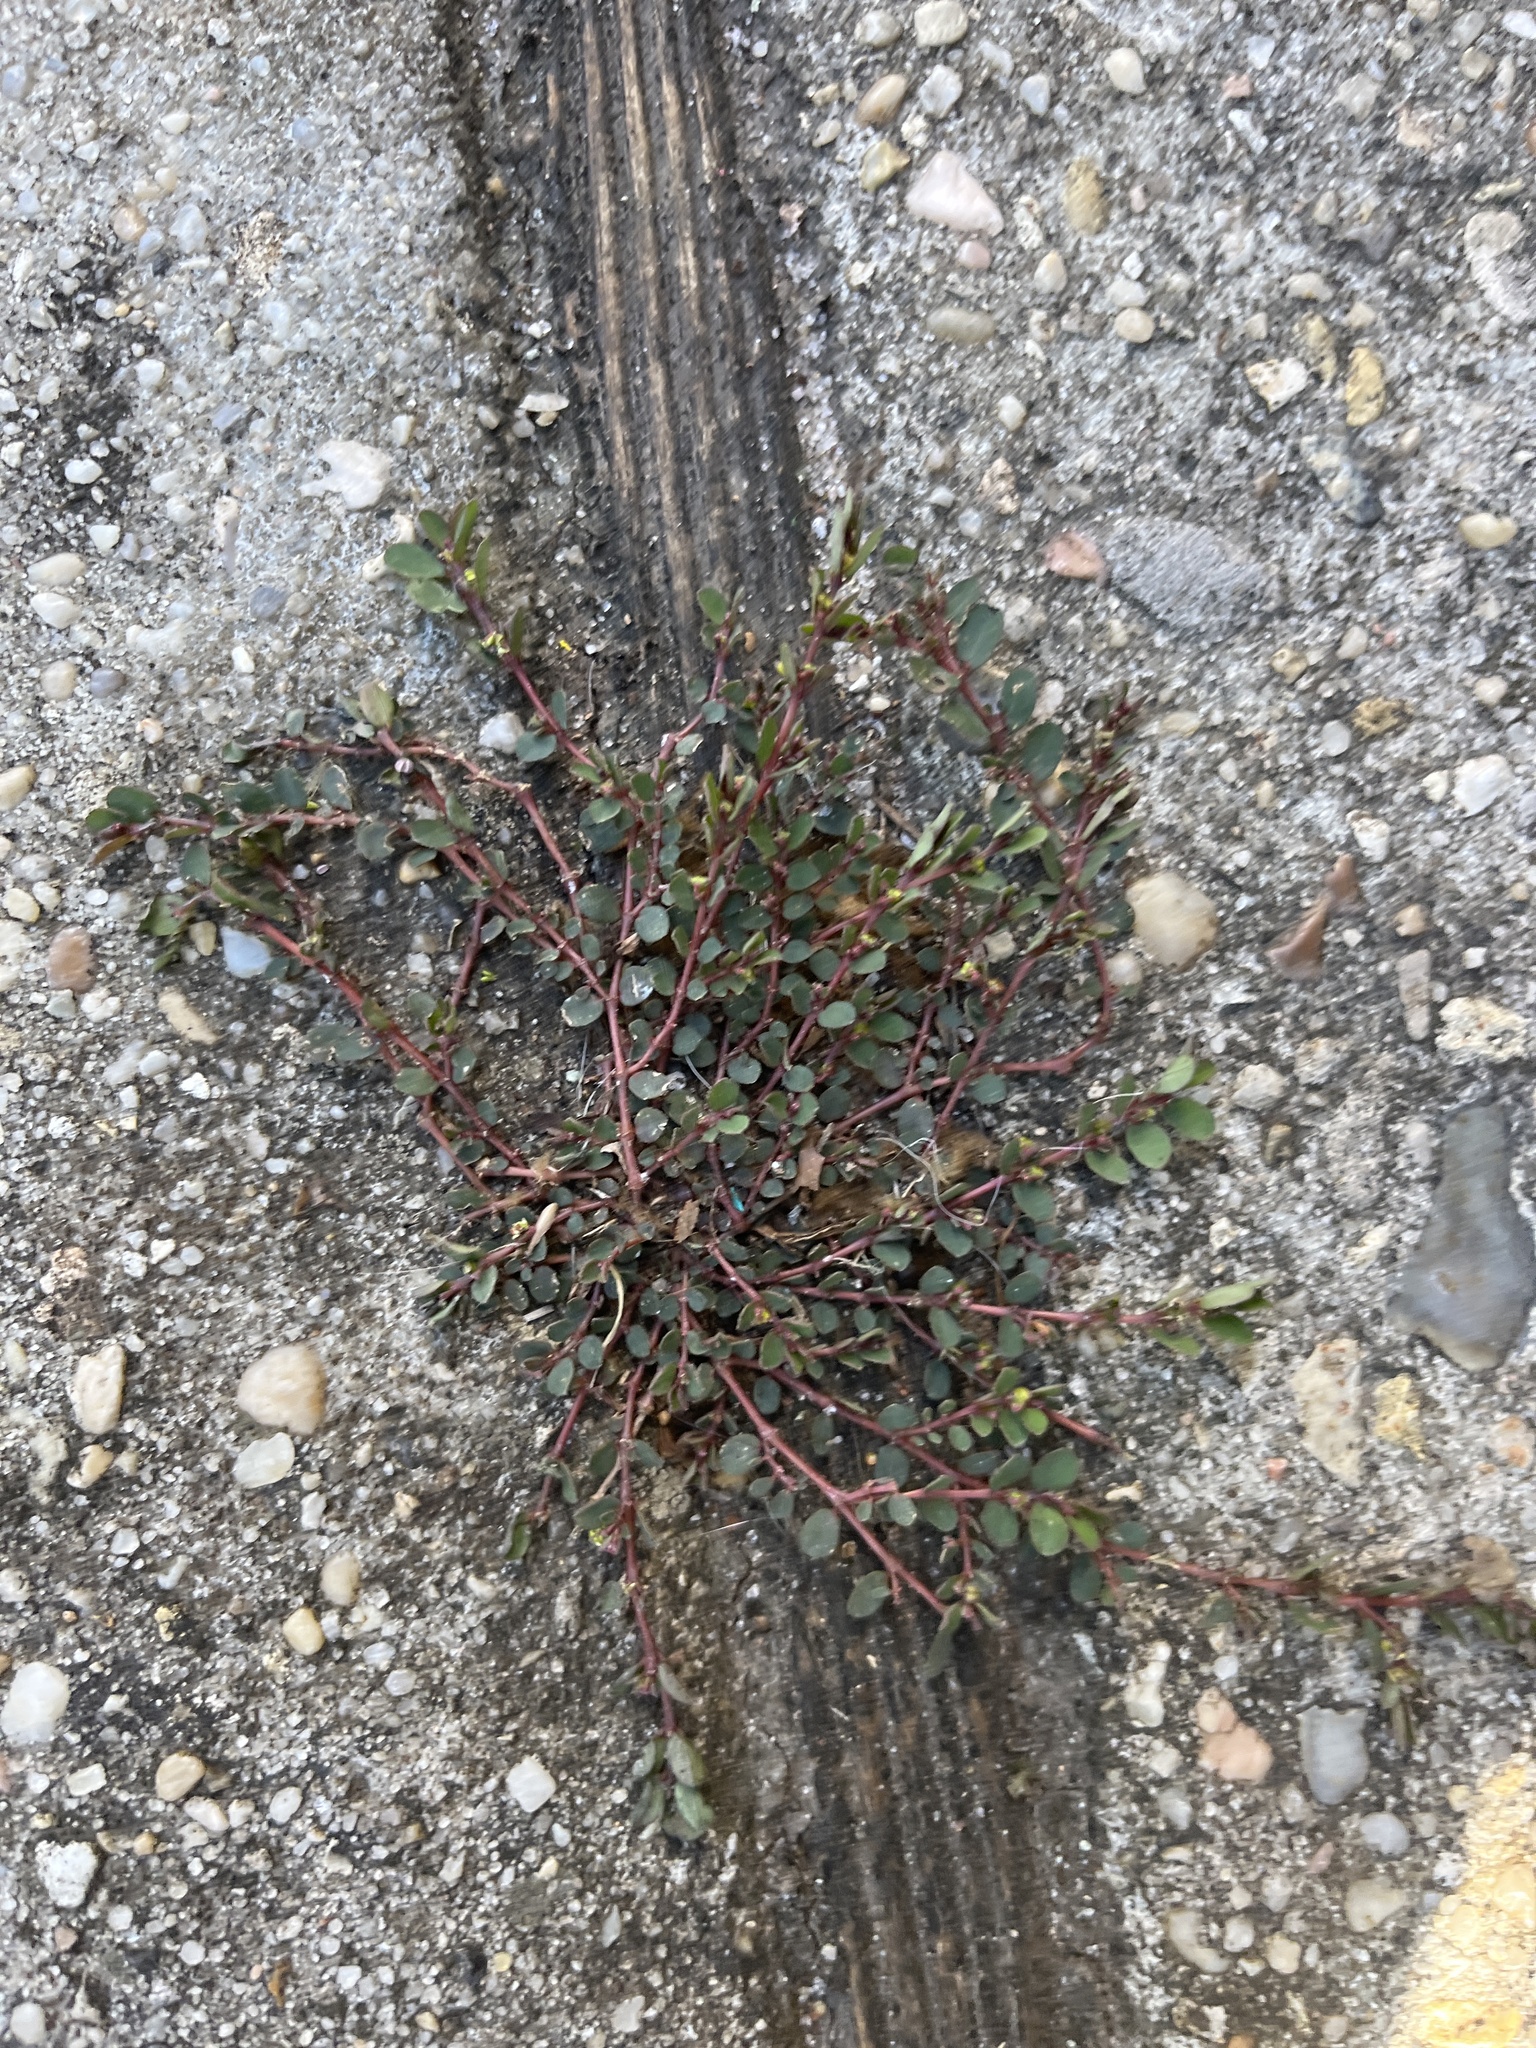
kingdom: Plantae
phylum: Tracheophyta
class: Magnoliopsida
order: Malpighiales
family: Euphorbiaceae
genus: Euphorbia
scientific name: Euphorbia prostrata
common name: Prostrate sandmat
